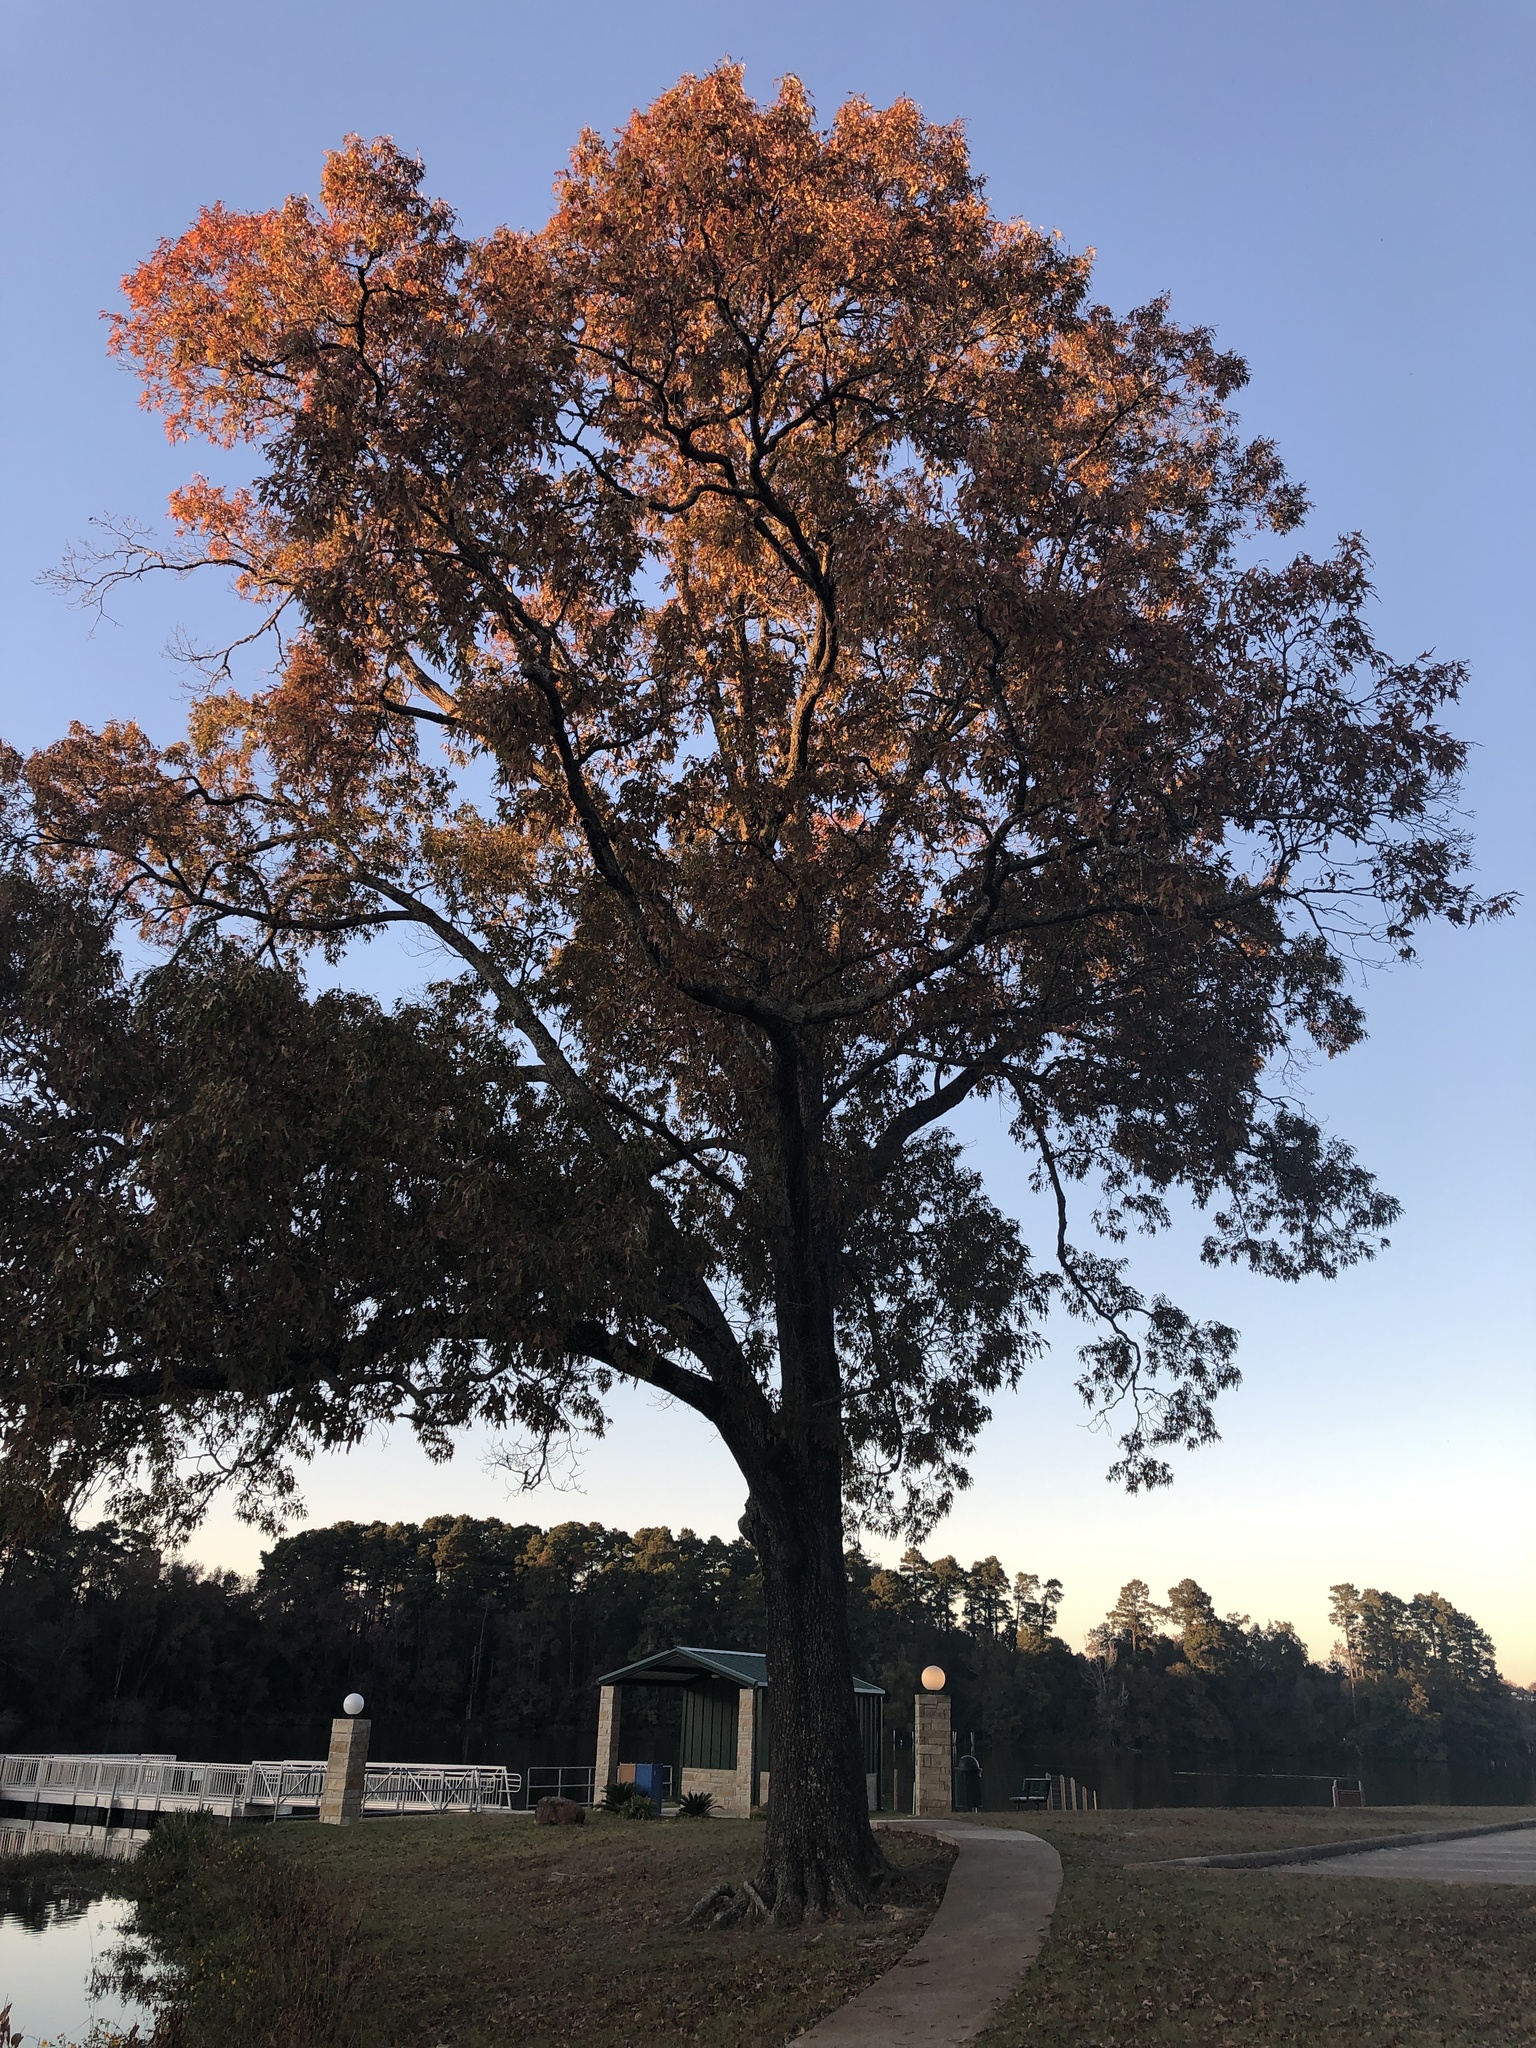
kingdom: Plantae
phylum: Tracheophyta
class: Magnoliopsida
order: Fagales
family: Fagaceae
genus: Quercus
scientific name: Quercus falcata
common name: Southern red oak
